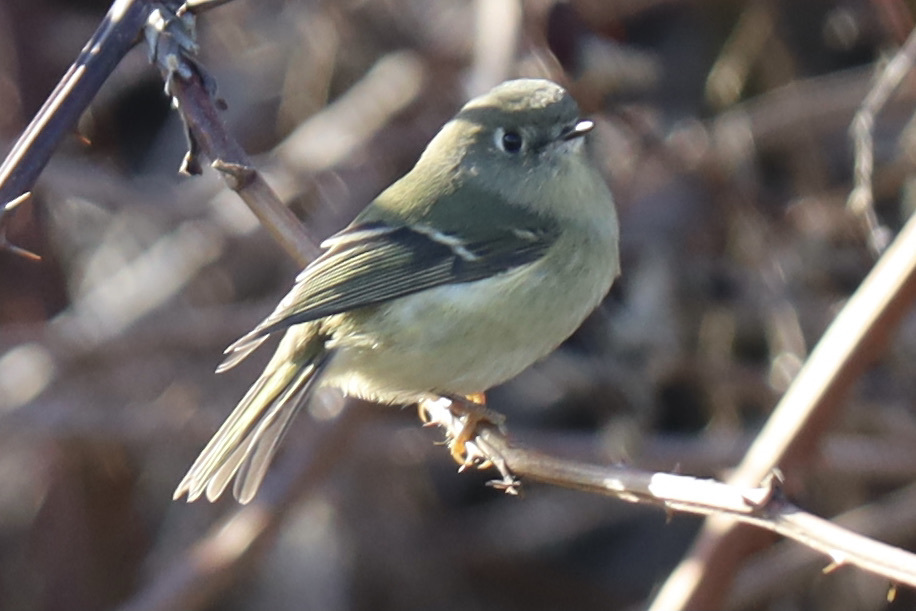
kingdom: Animalia
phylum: Chordata
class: Aves
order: Passeriformes
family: Regulidae
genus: Regulus
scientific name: Regulus calendula
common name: Ruby-crowned kinglet
